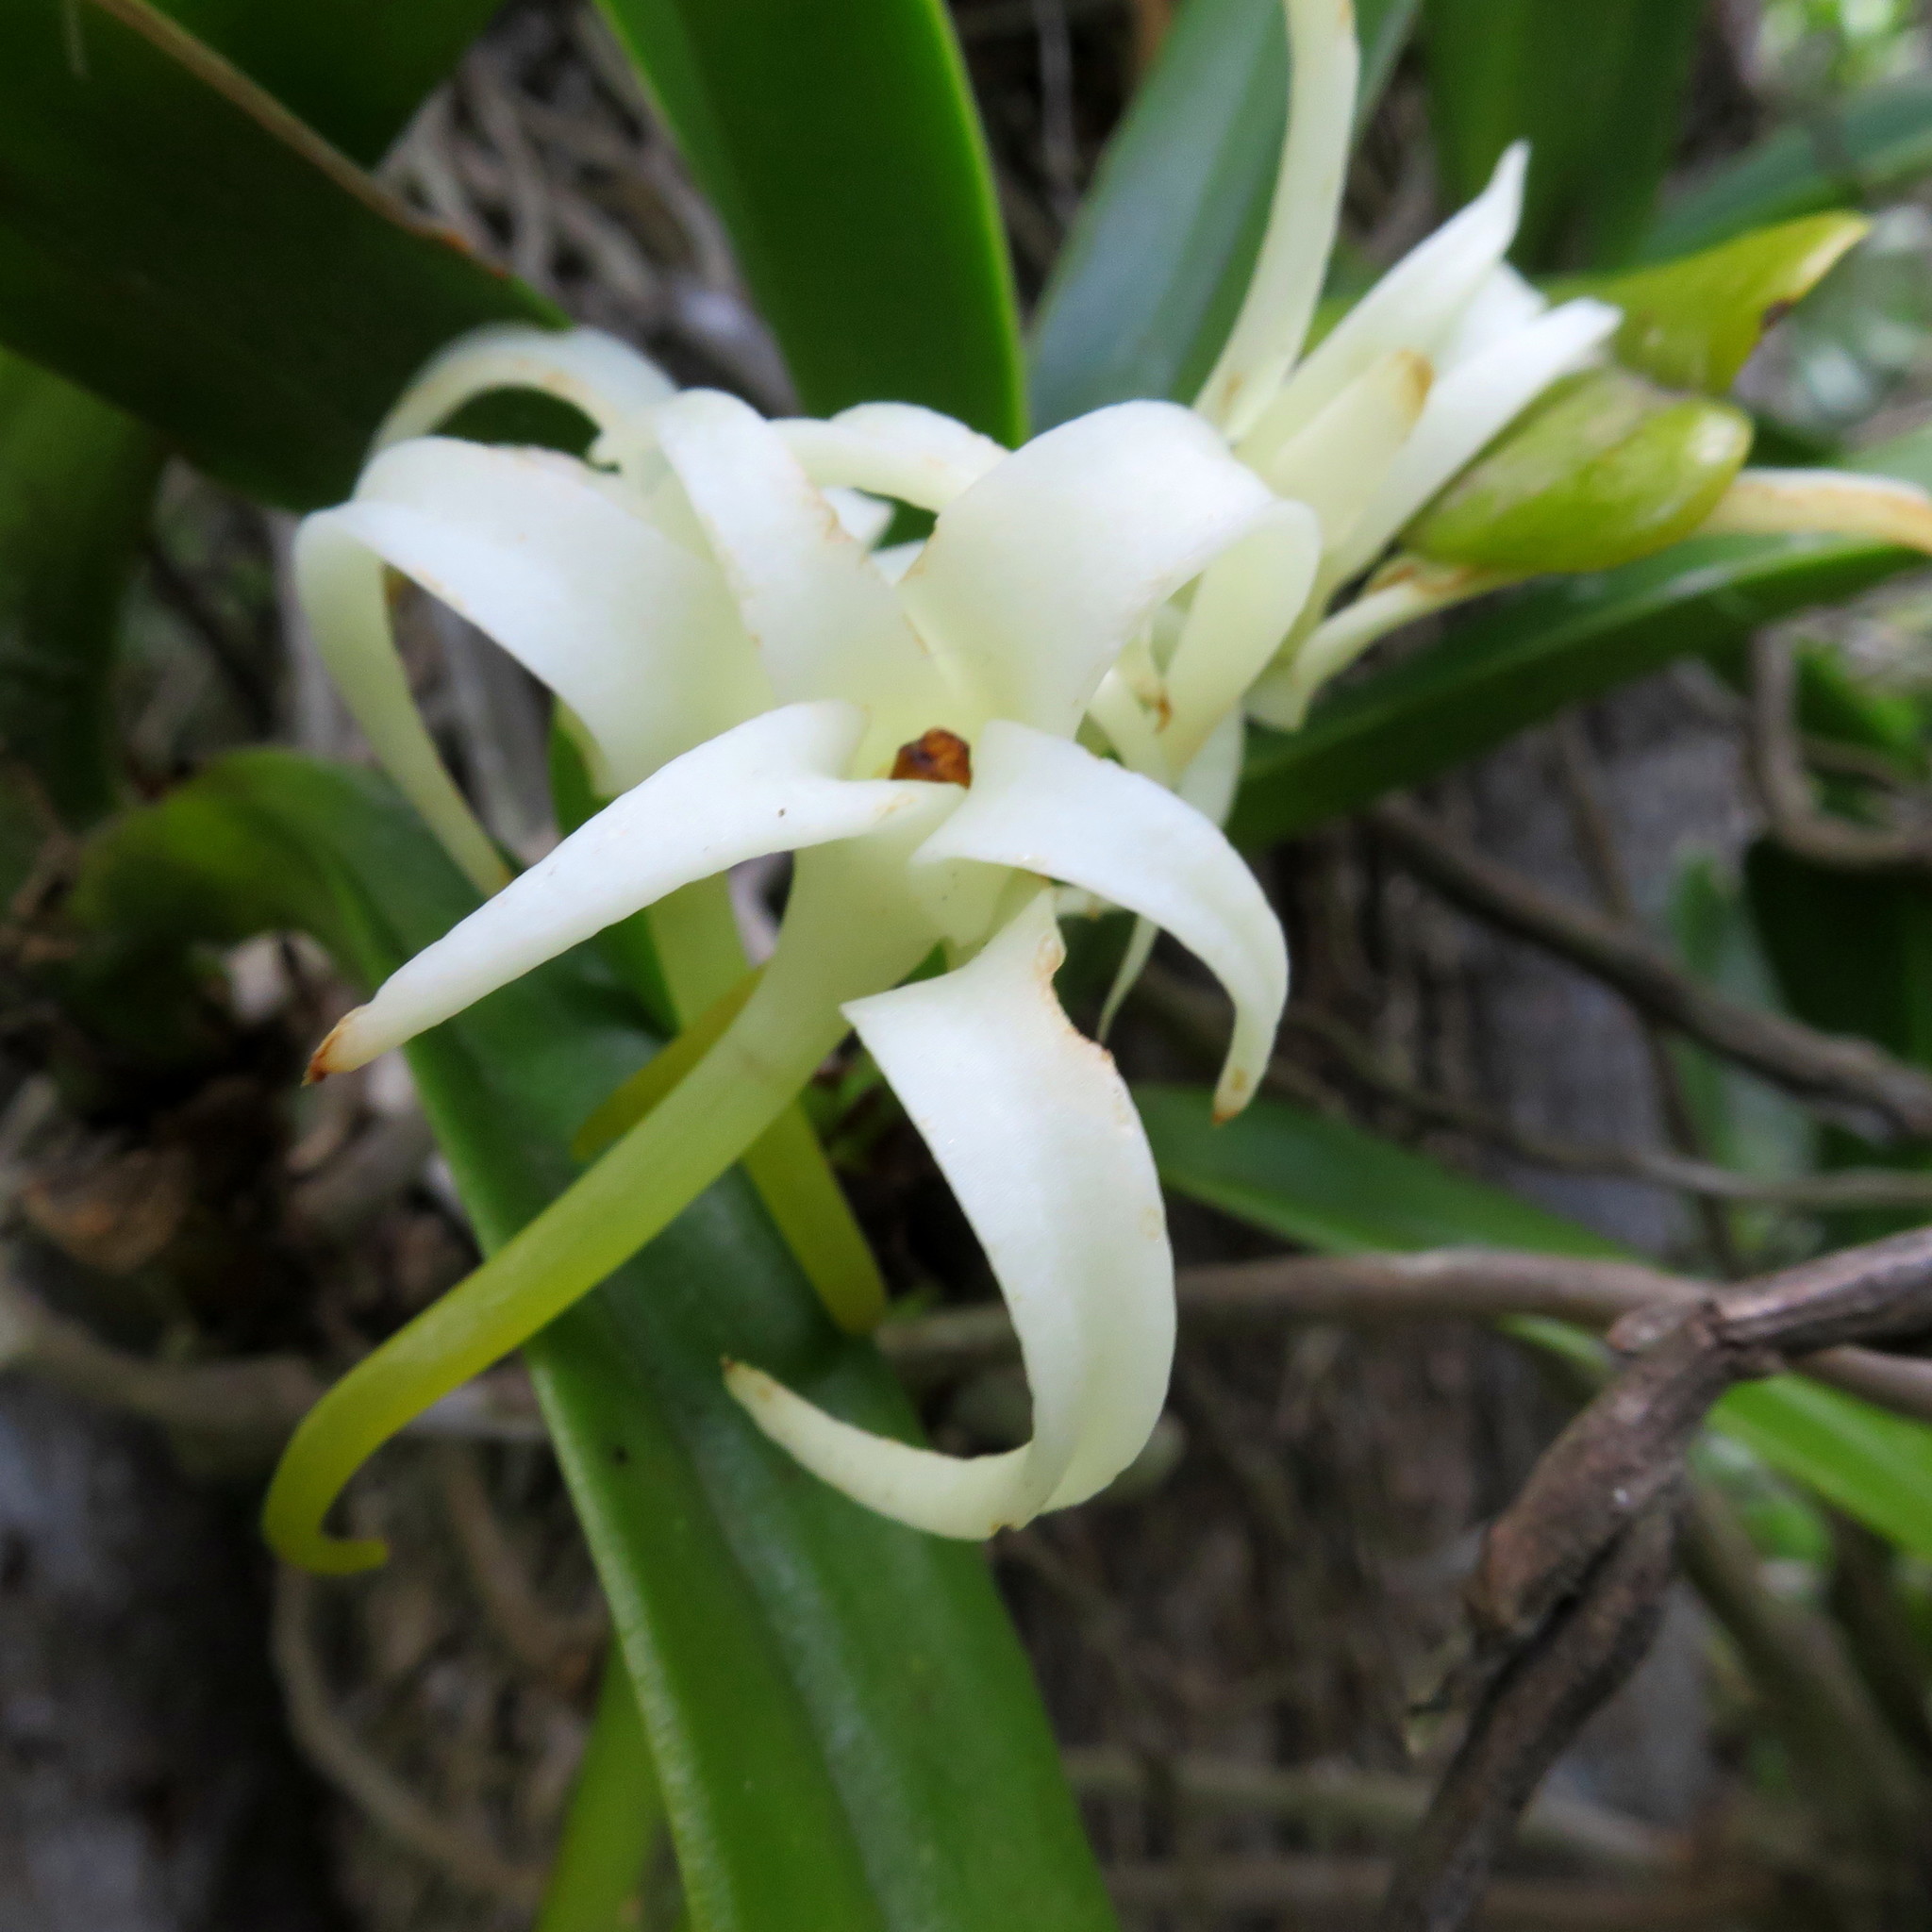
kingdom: Plantae
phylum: Tracheophyta
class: Liliopsida
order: Asparagales
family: Orchidaceae
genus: Cyrtorchis
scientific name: Cyrtorchis arcuata
